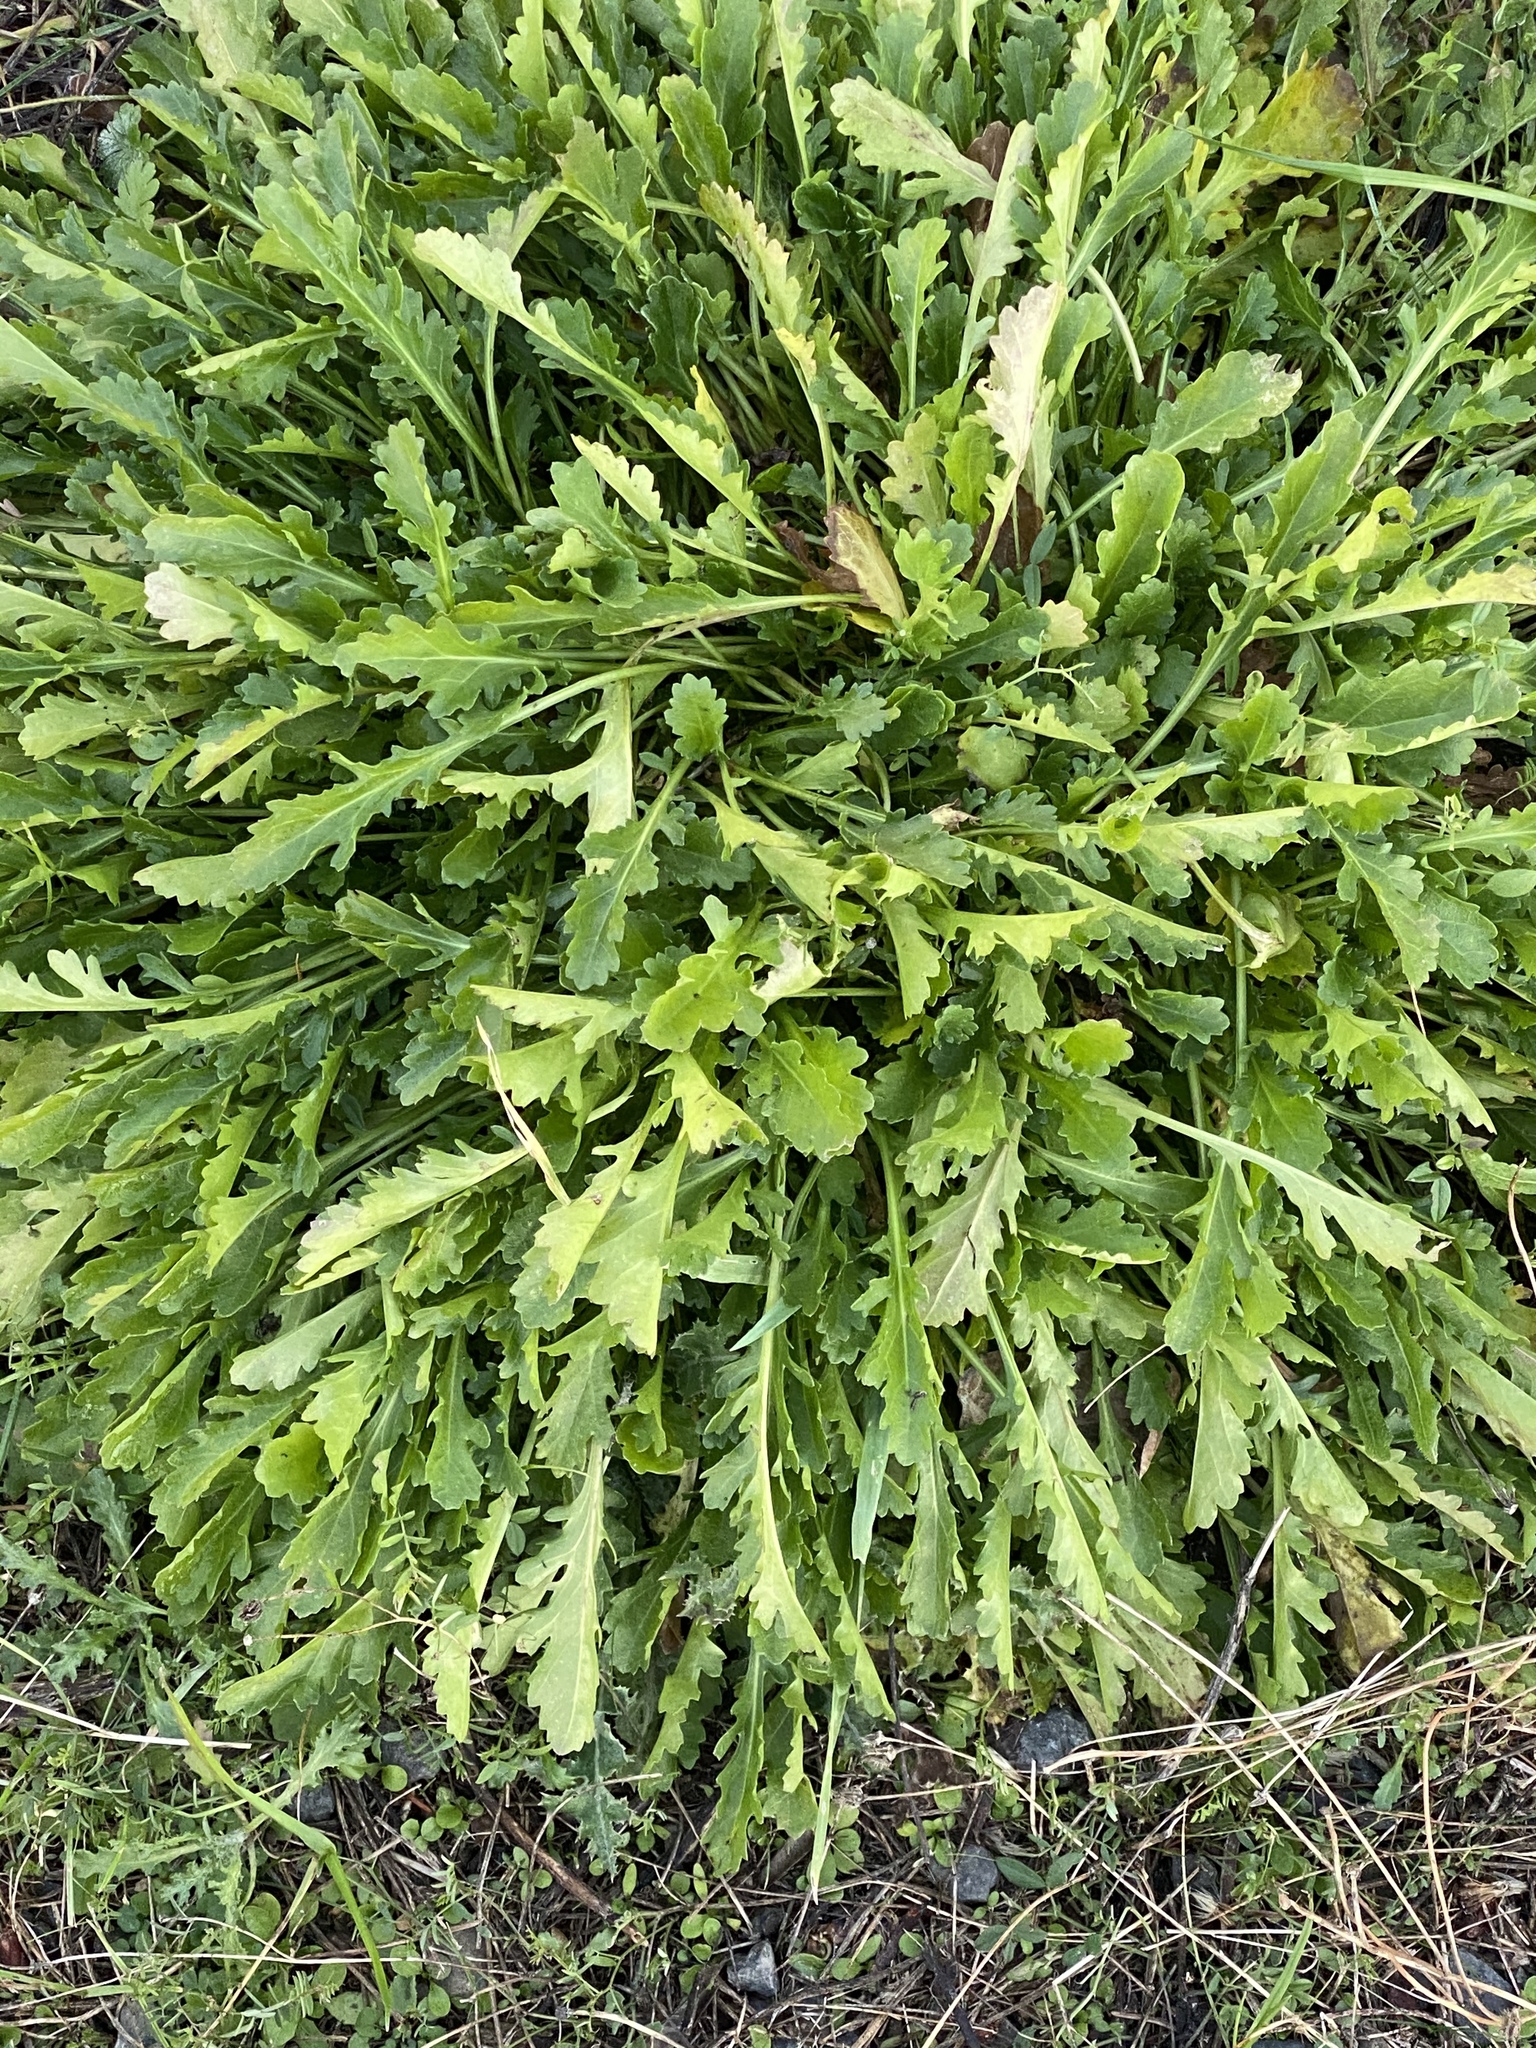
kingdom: Plantae
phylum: Tracheophyta
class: Magnoliopsida
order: Asterales
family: Asteraceae
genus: Leucanthemum
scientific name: Leucanthemum vulgare
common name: Oxeye daisy
